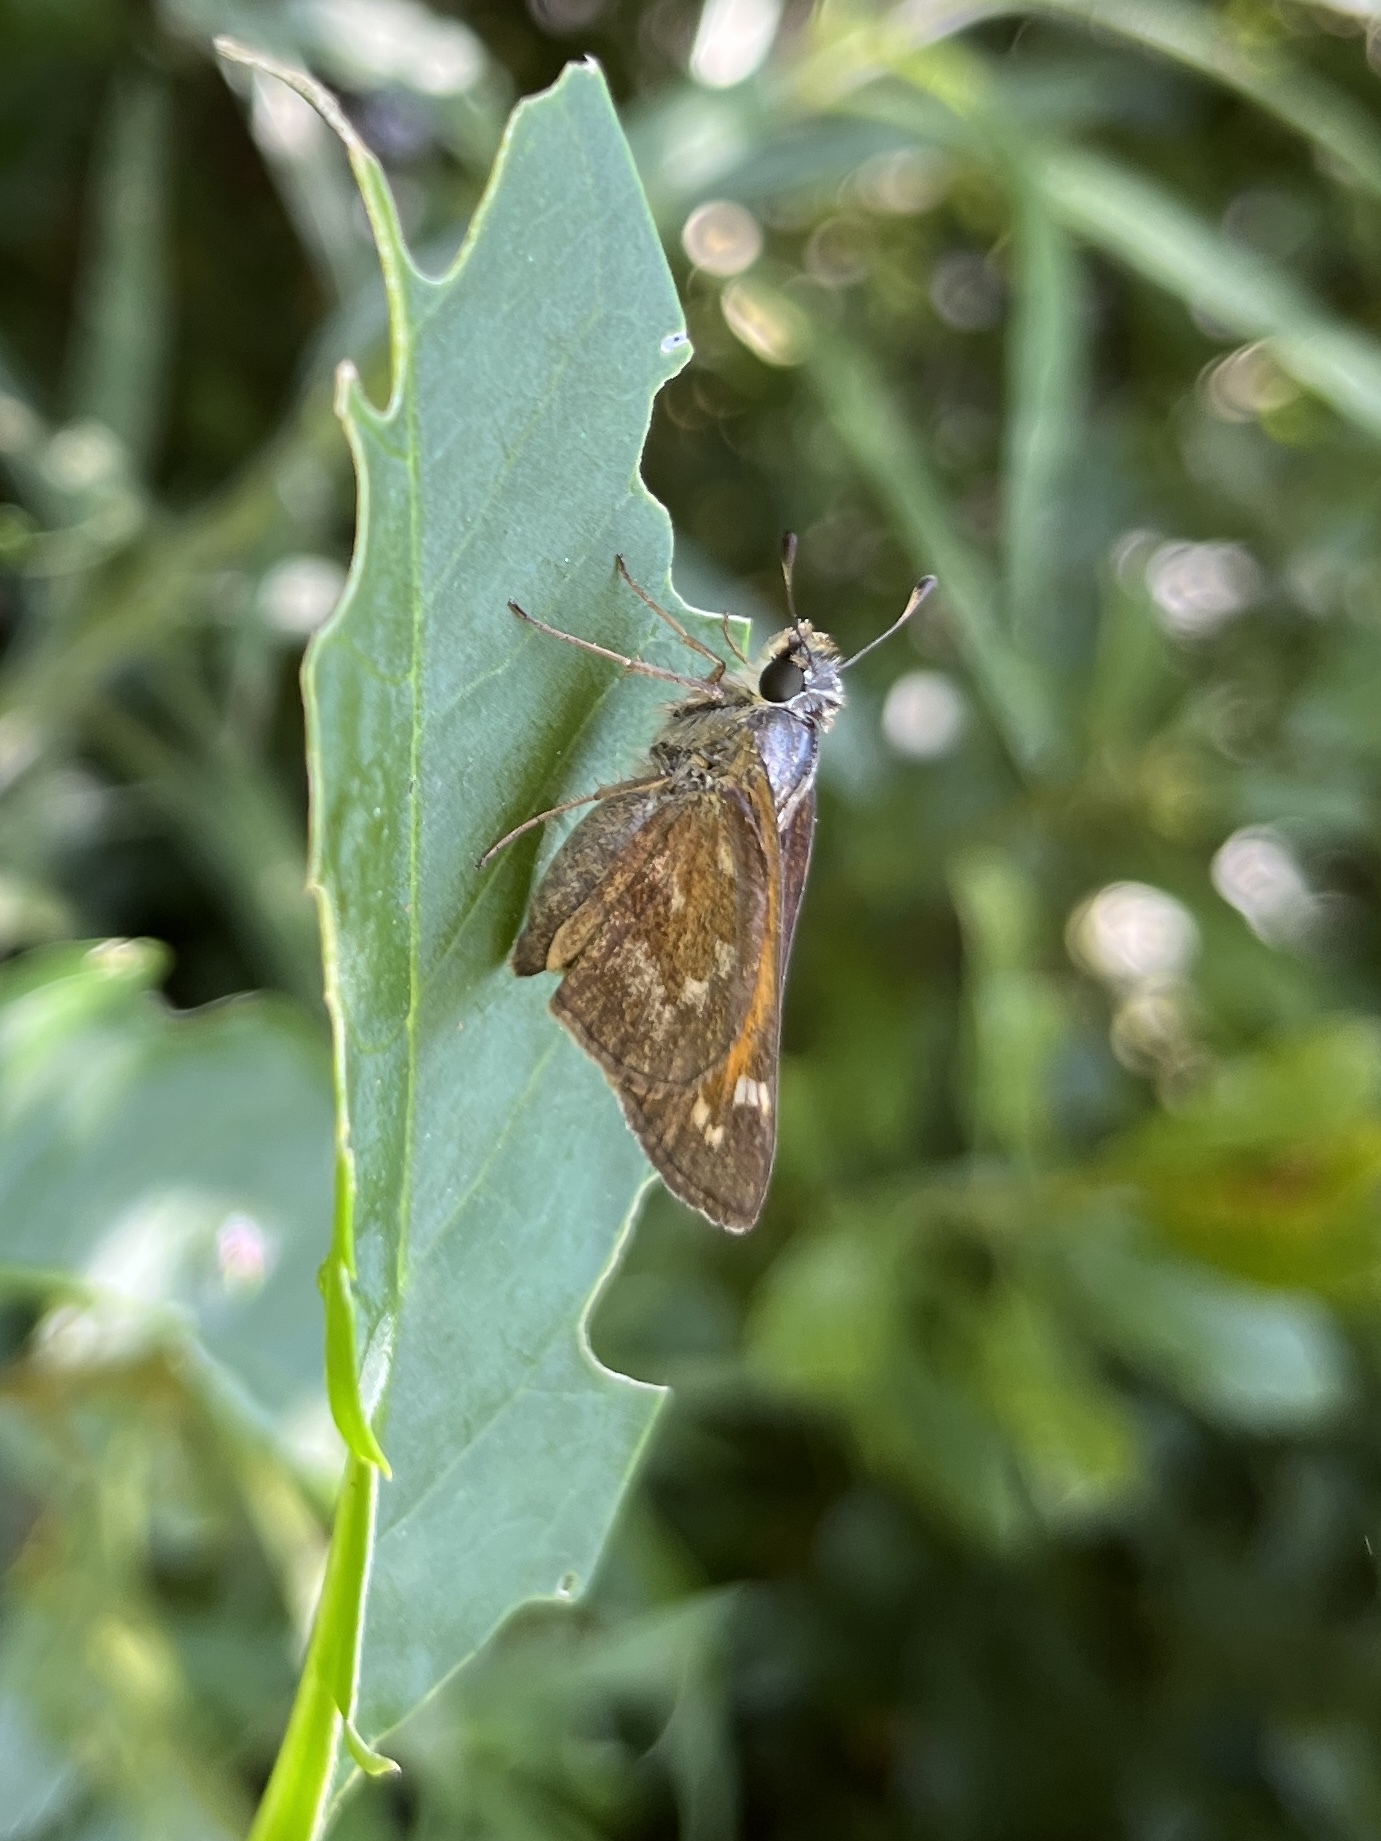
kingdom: Animalia
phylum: Arthropoda
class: Insecta
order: Lepidoptera
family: Hesperiidae
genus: Atalopedes
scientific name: Atalopedes
